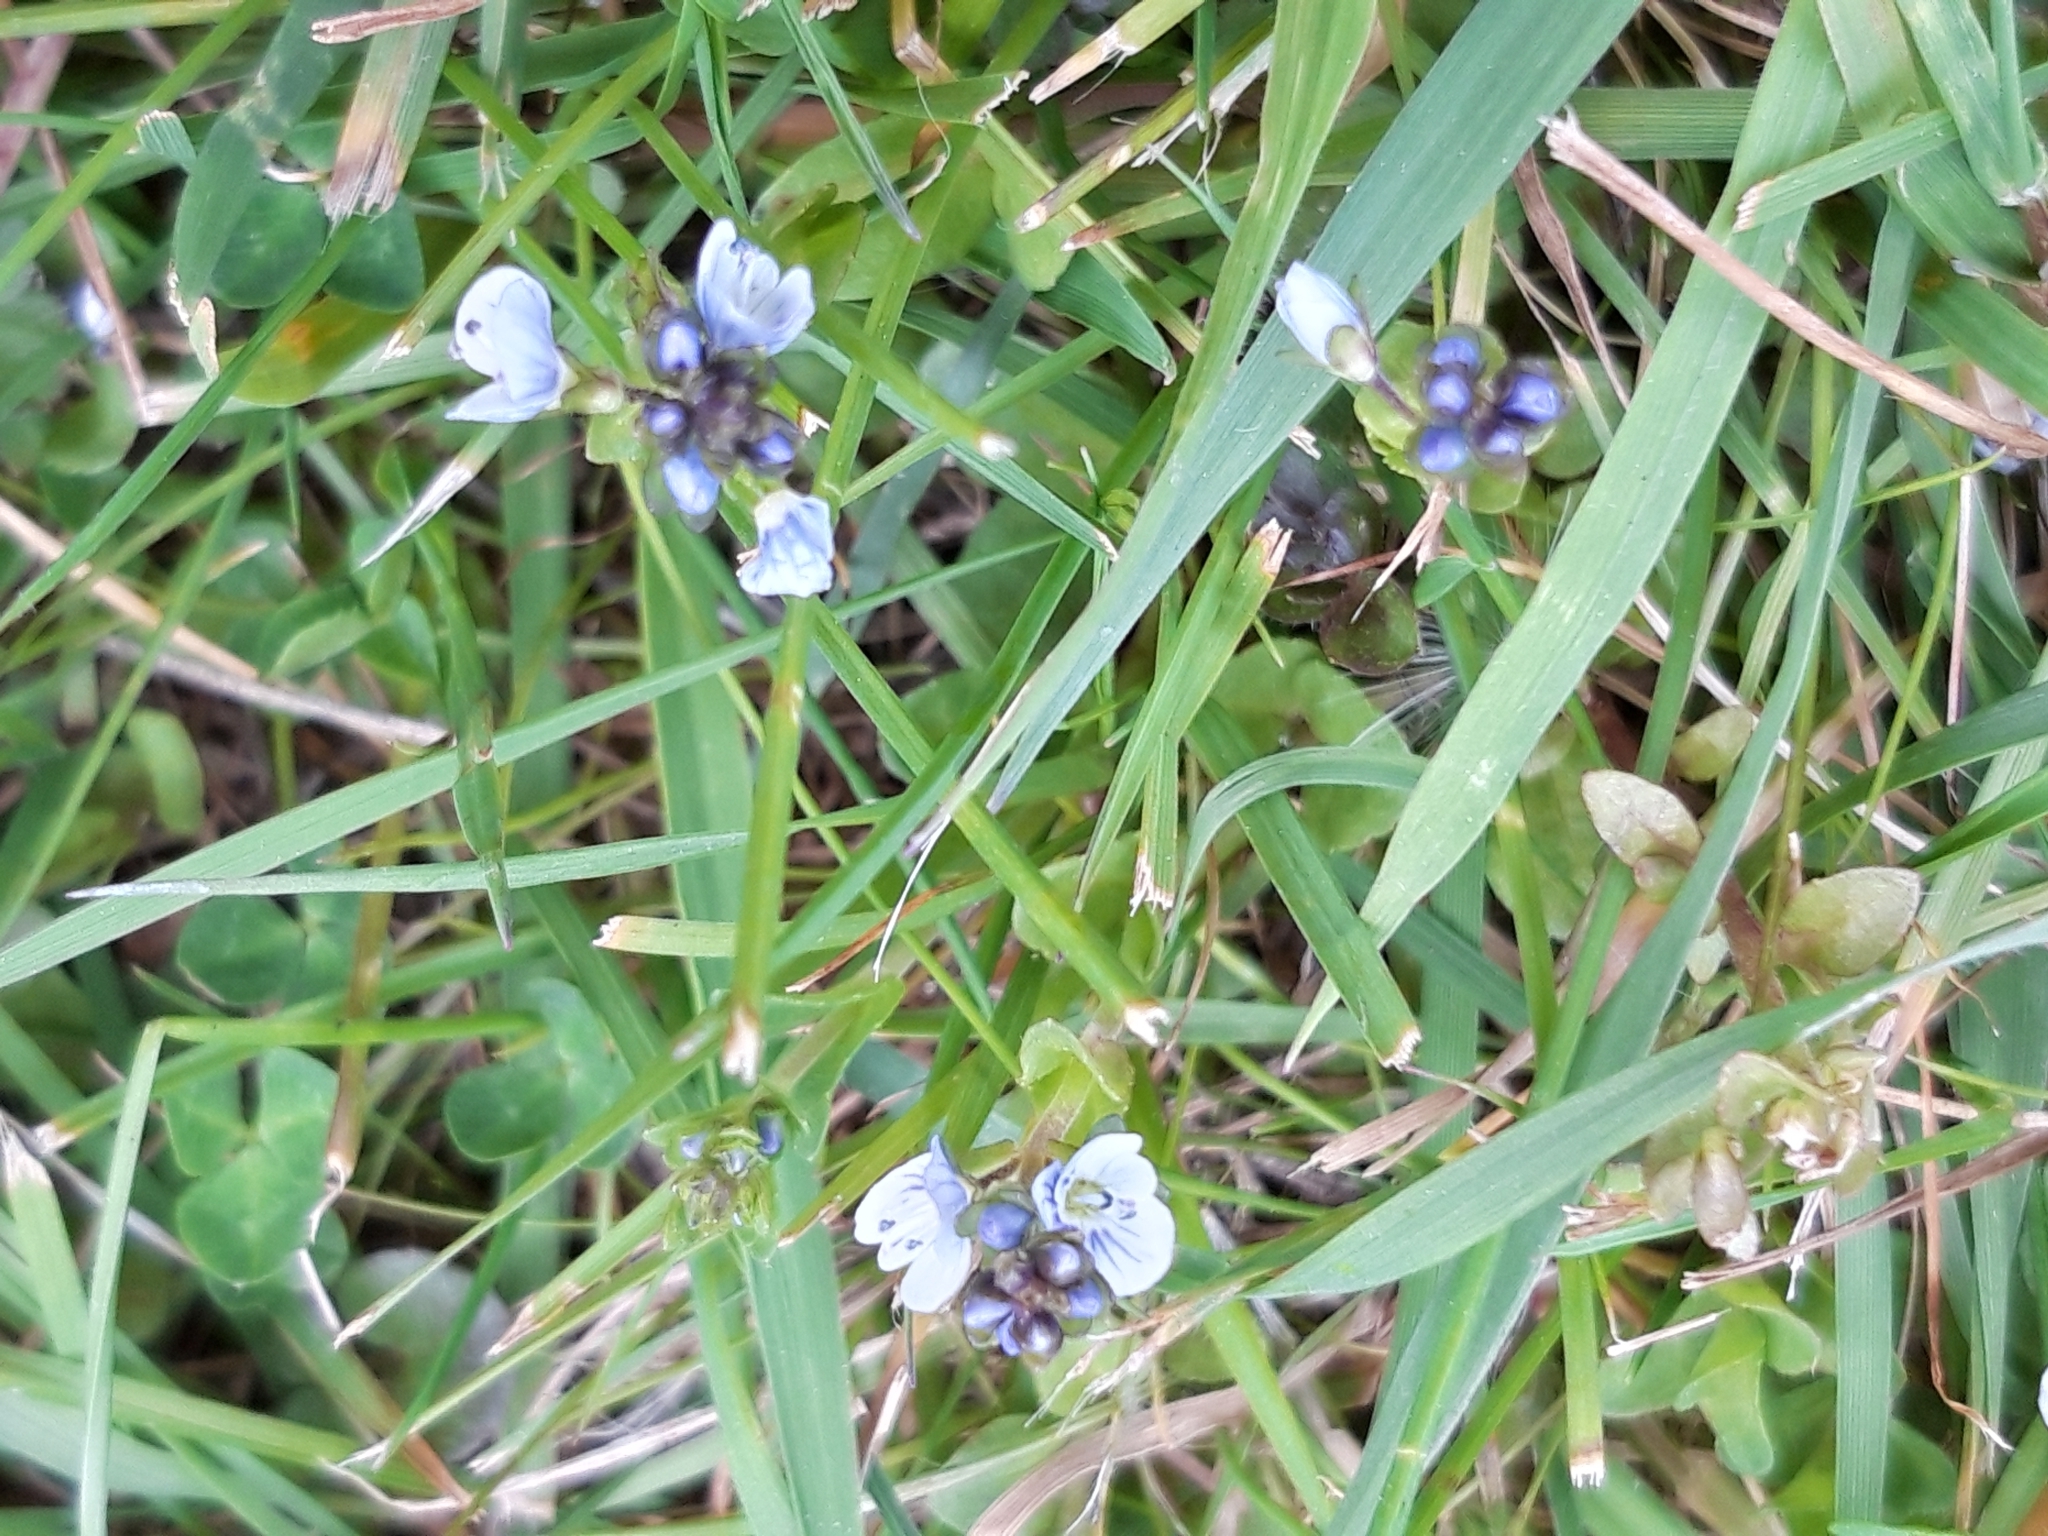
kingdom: Plantae
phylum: Tracheophyta
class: Magnoliopsida
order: Lamiales
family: Plantaginaceae
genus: Veronica
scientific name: Veronica serpyllifolia
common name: Thyme-leaved speedwell
